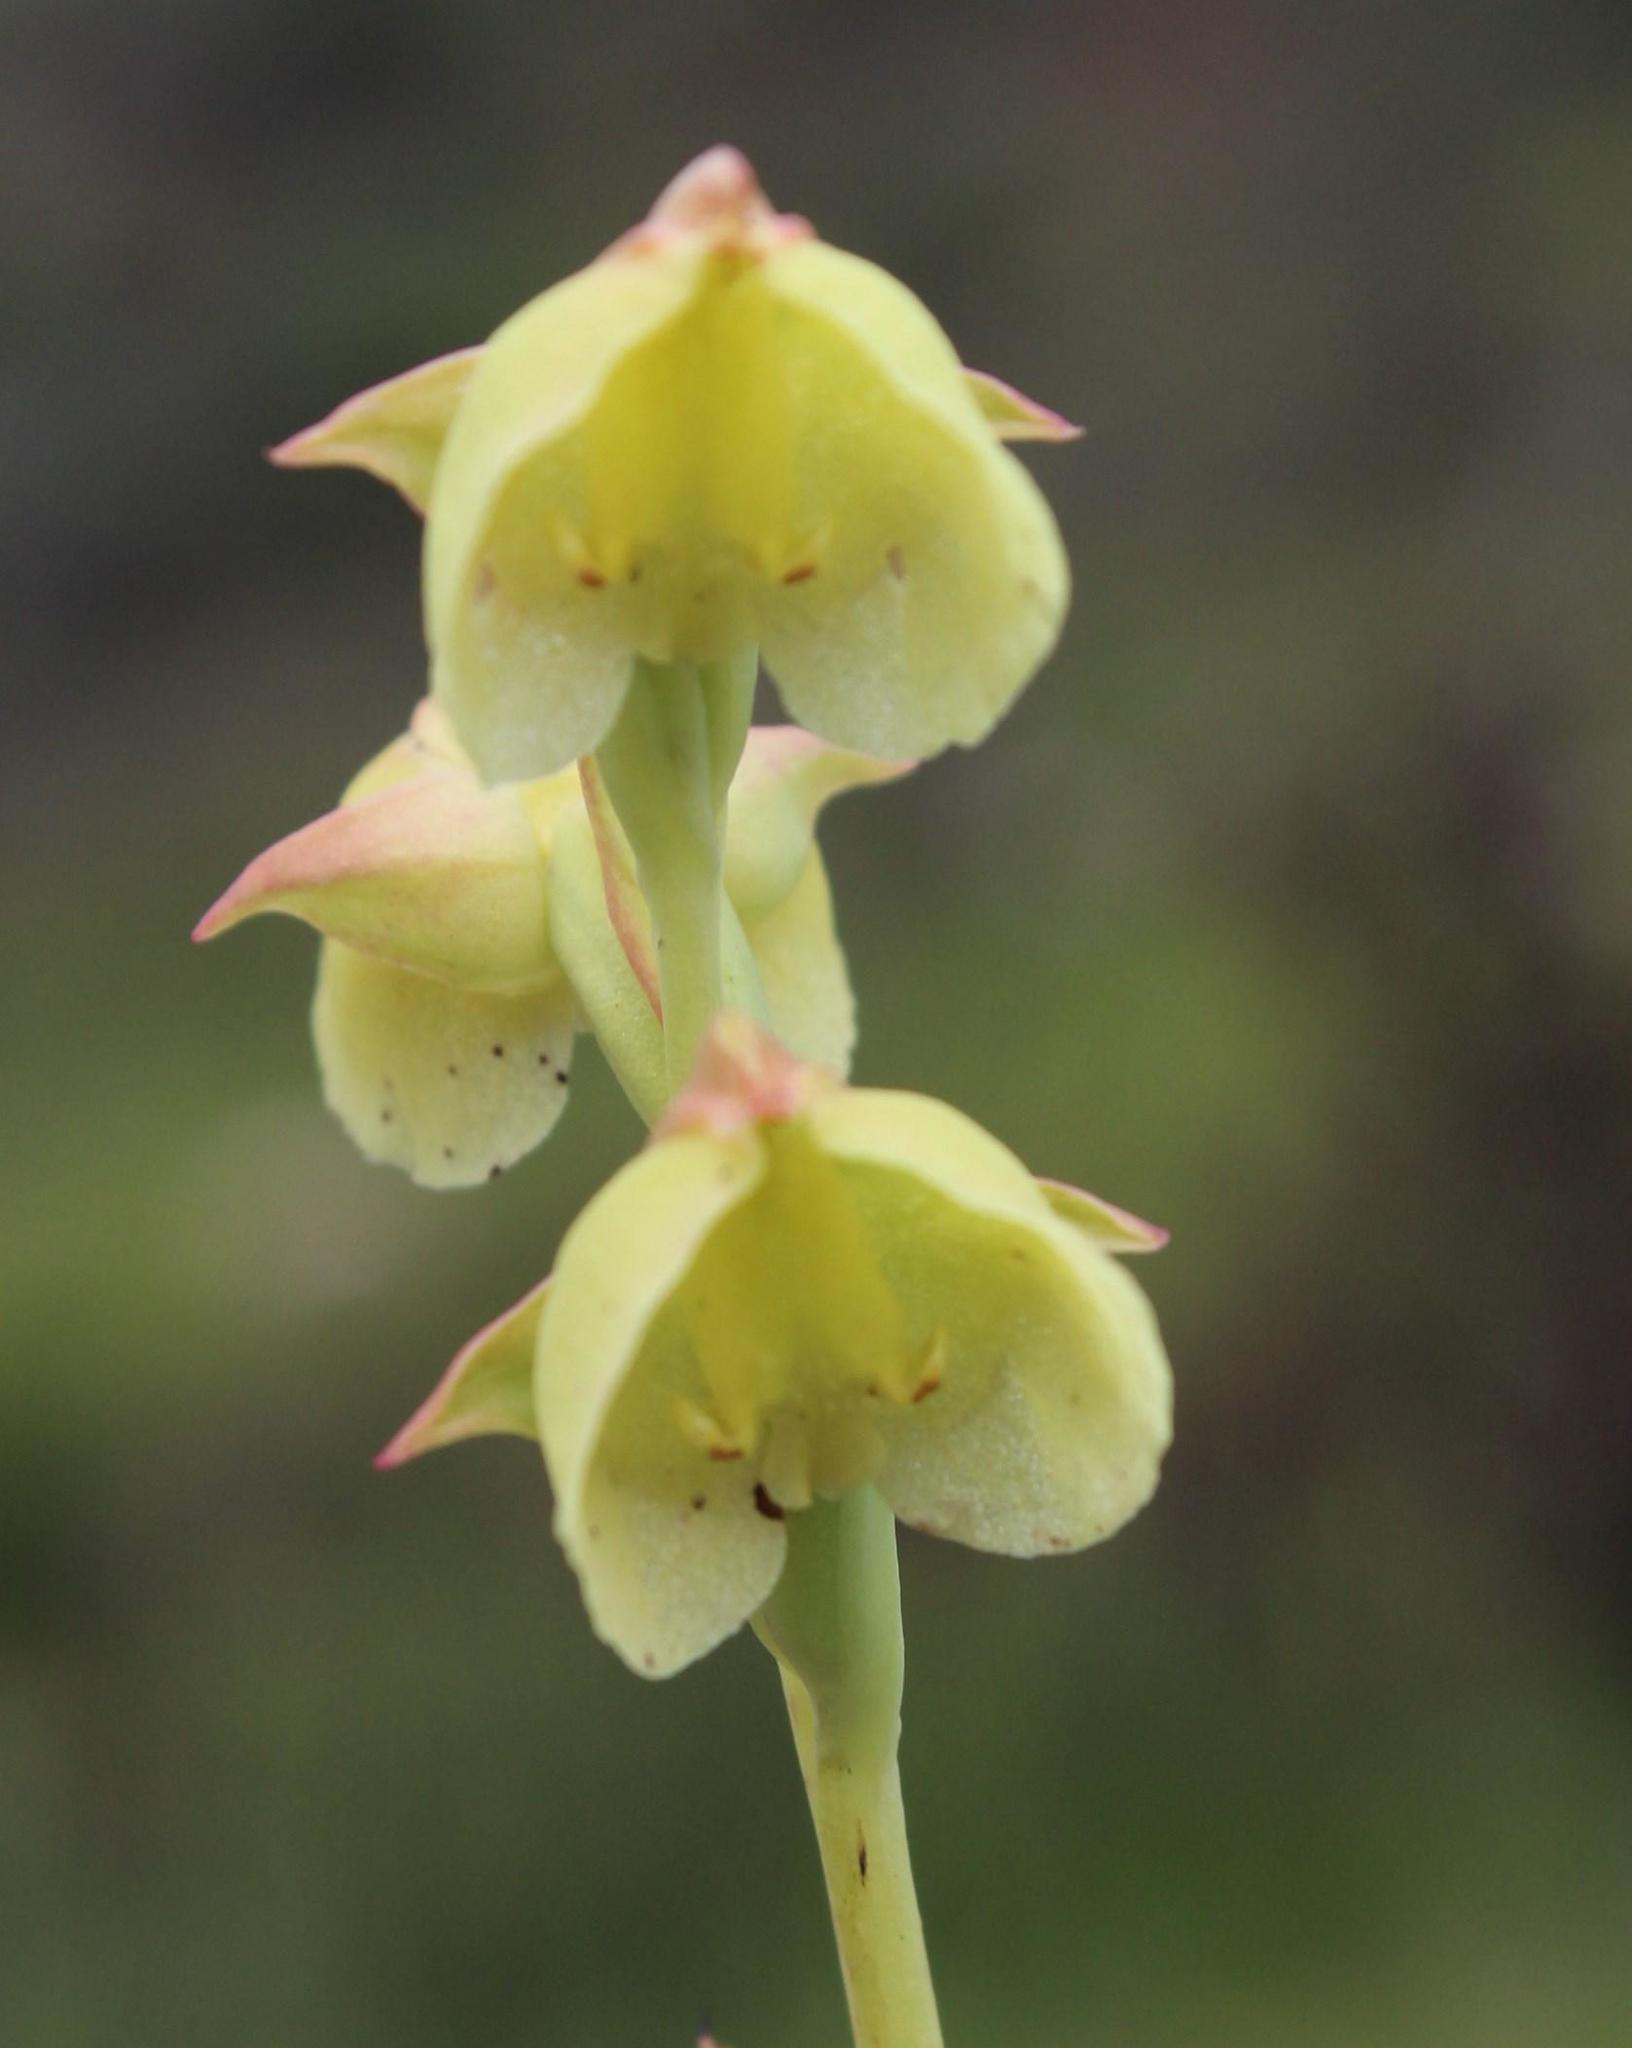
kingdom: Plantae
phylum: Tracheophyta
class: Liliopsida
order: Asparagales
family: Orchidaceae
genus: Pterygodium
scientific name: Pterygodium catholicum
